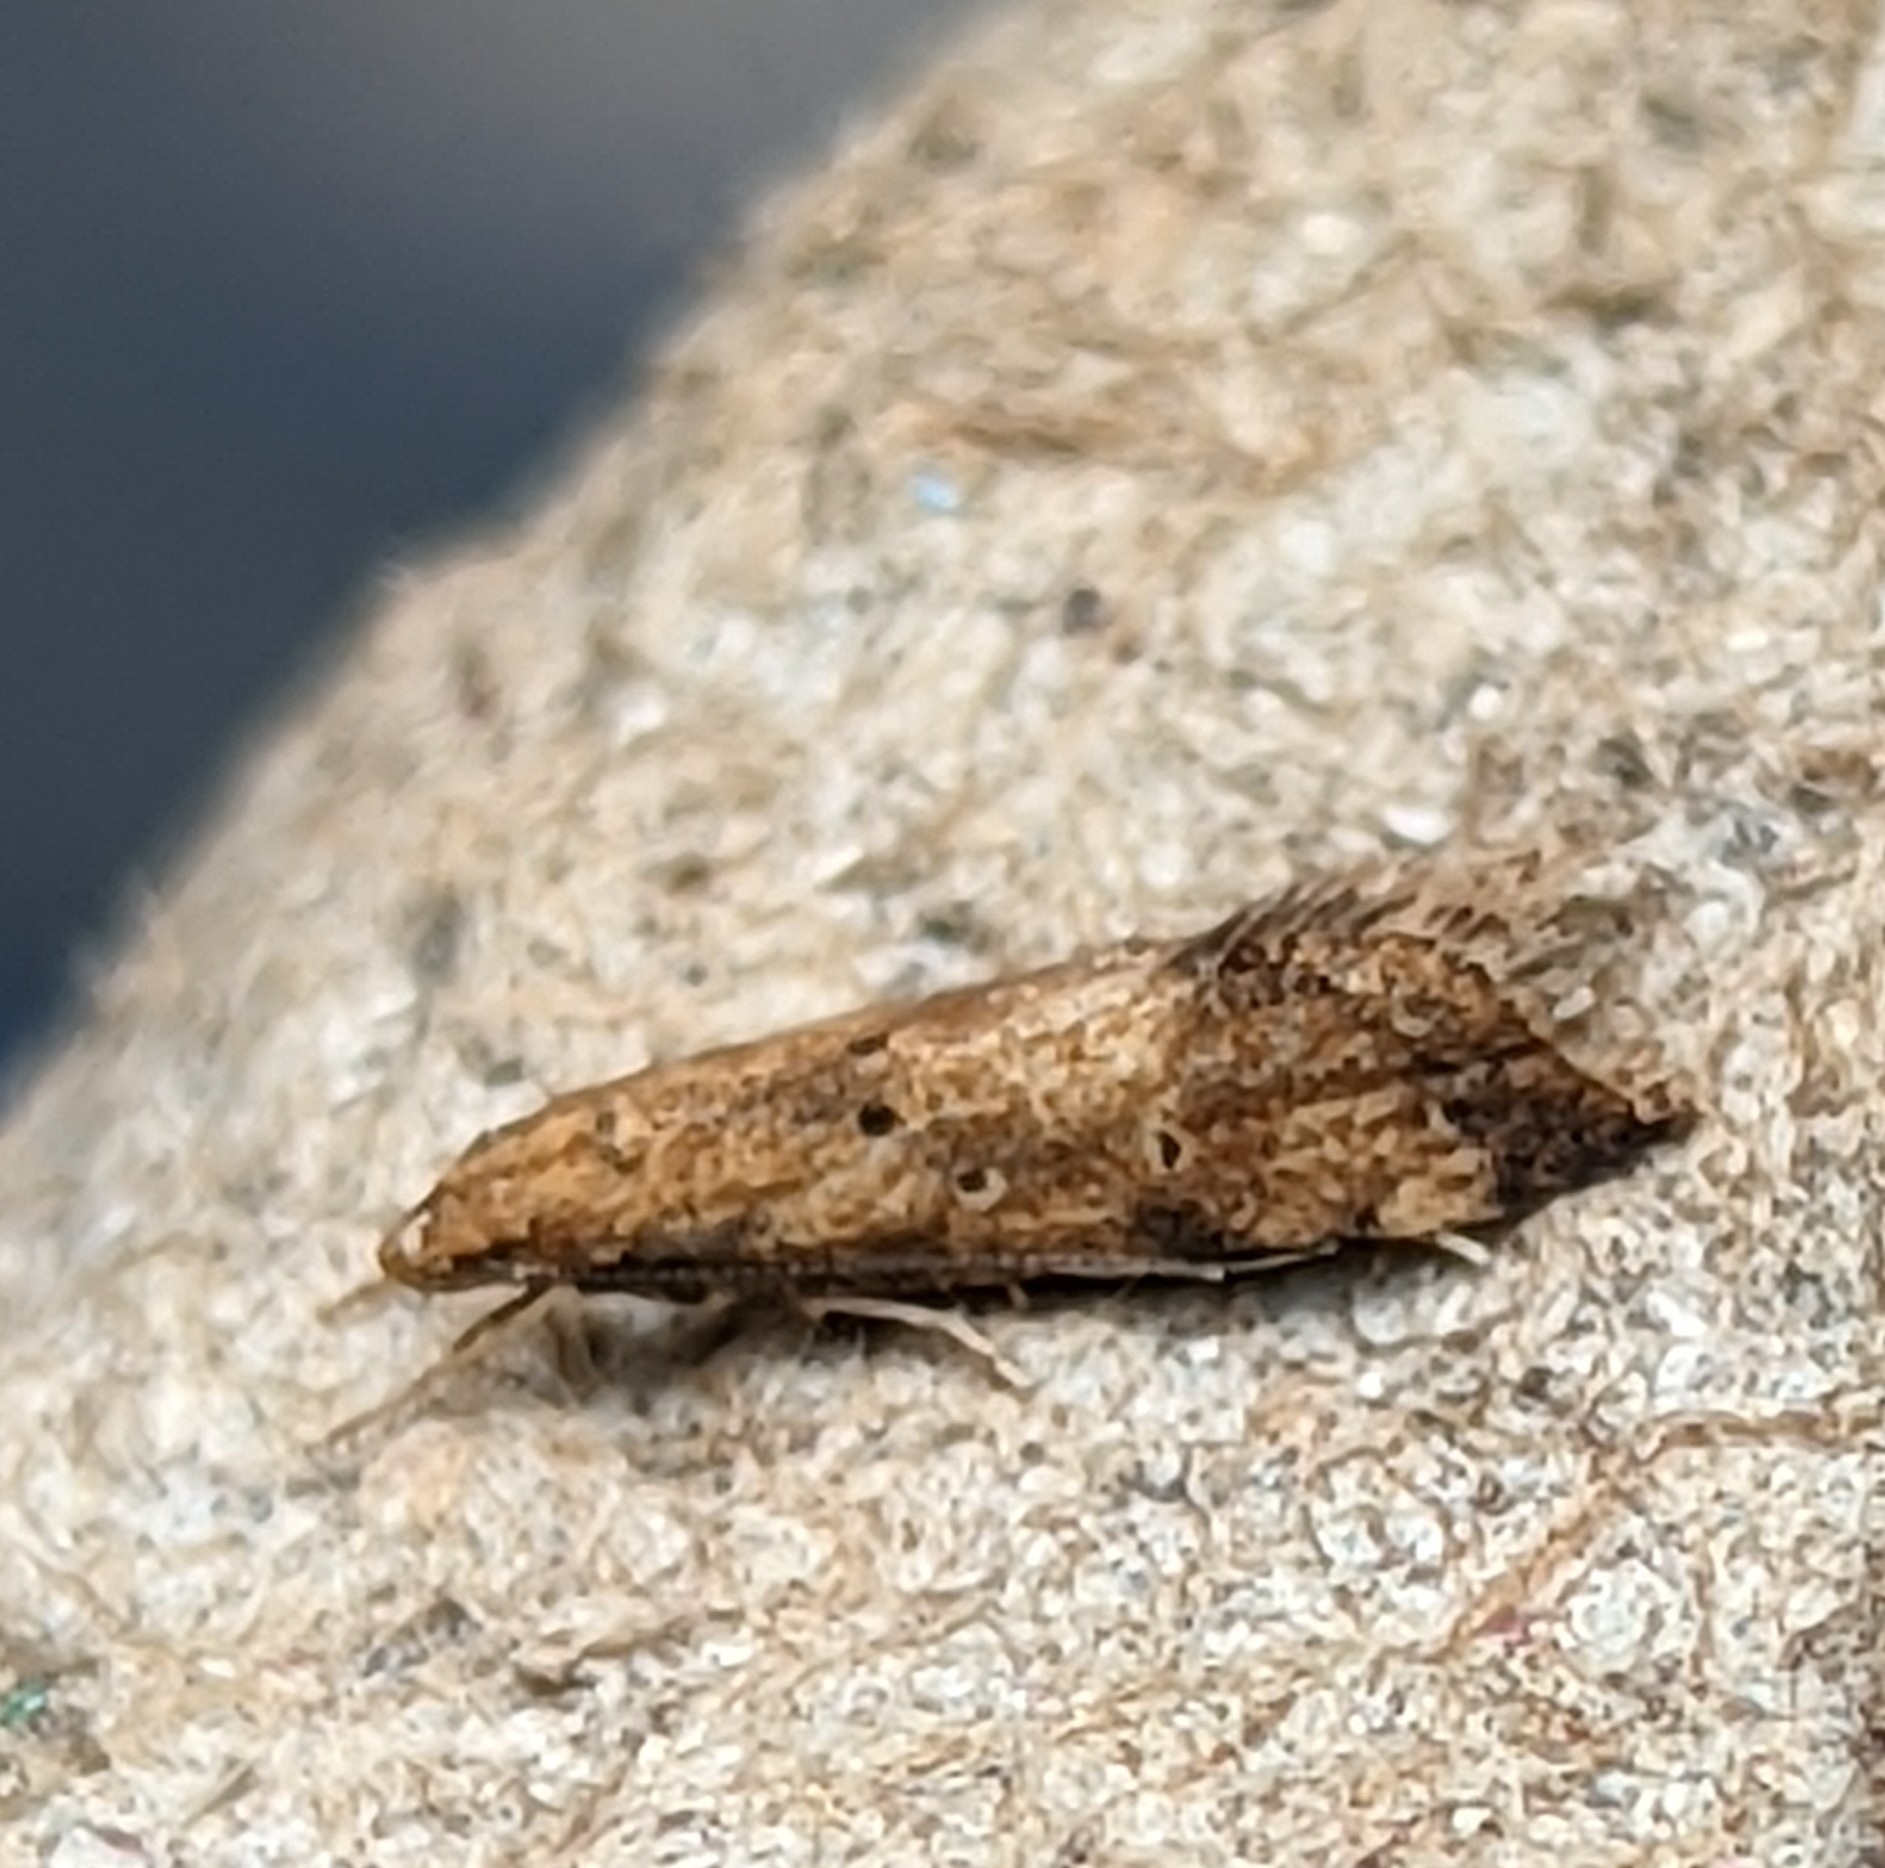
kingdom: Animalia
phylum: Arthropoda
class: Insecta
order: Lepidoptera
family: Gelechiidae
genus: Brachmia
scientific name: Brachmia blandella
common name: Gorse crest
